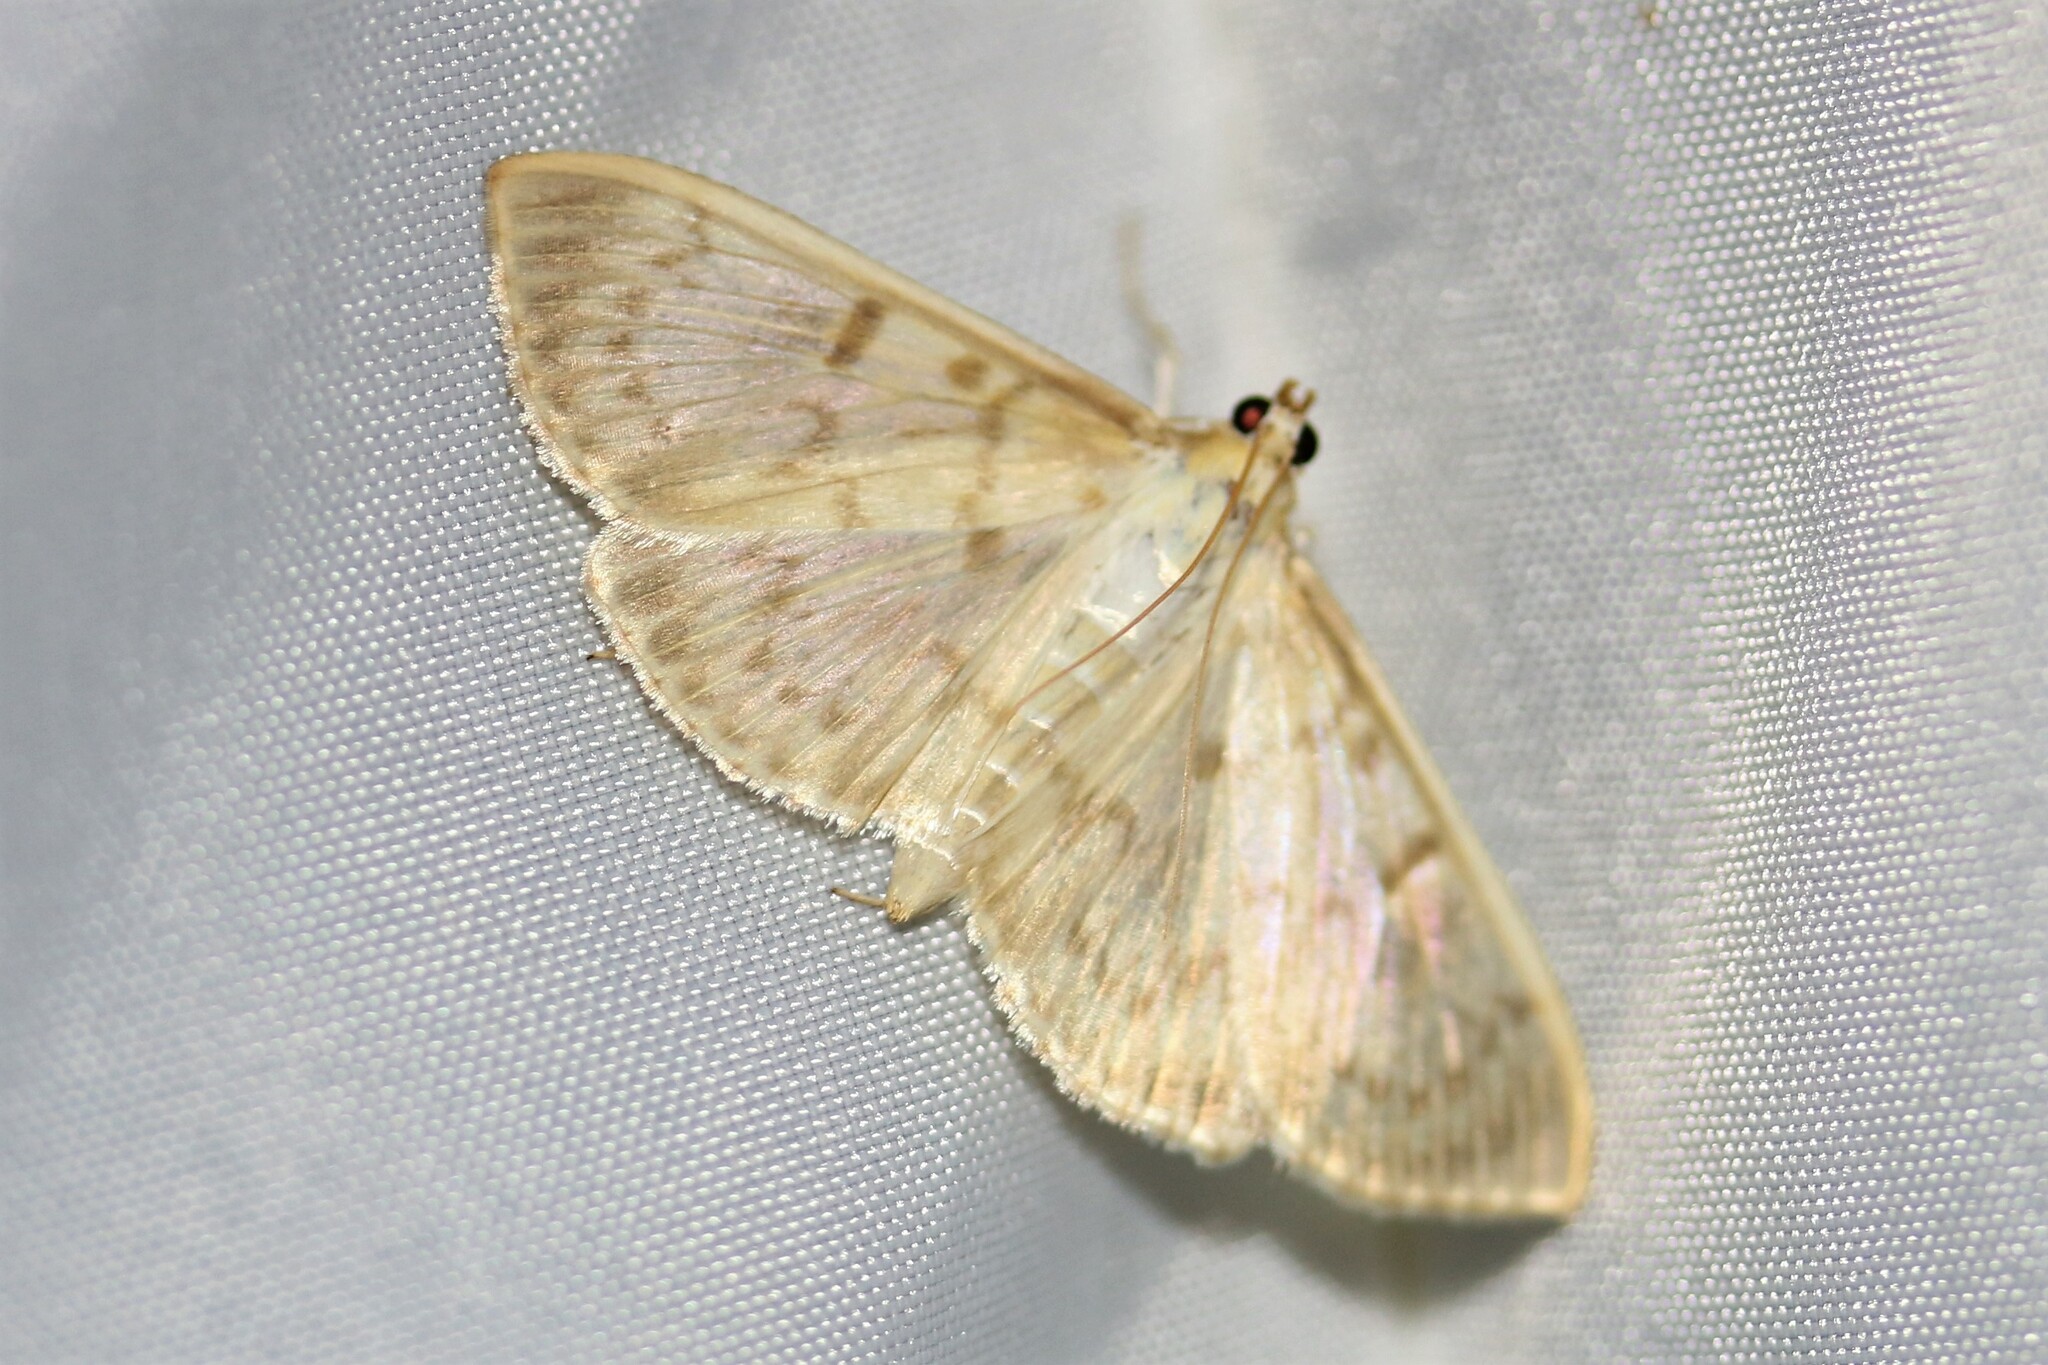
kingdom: Animalia
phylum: Arthropoda
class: Insecta
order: Lepidoptera
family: Crambidae
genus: Patania
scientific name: Patania ruralis
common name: Mother of pearl
